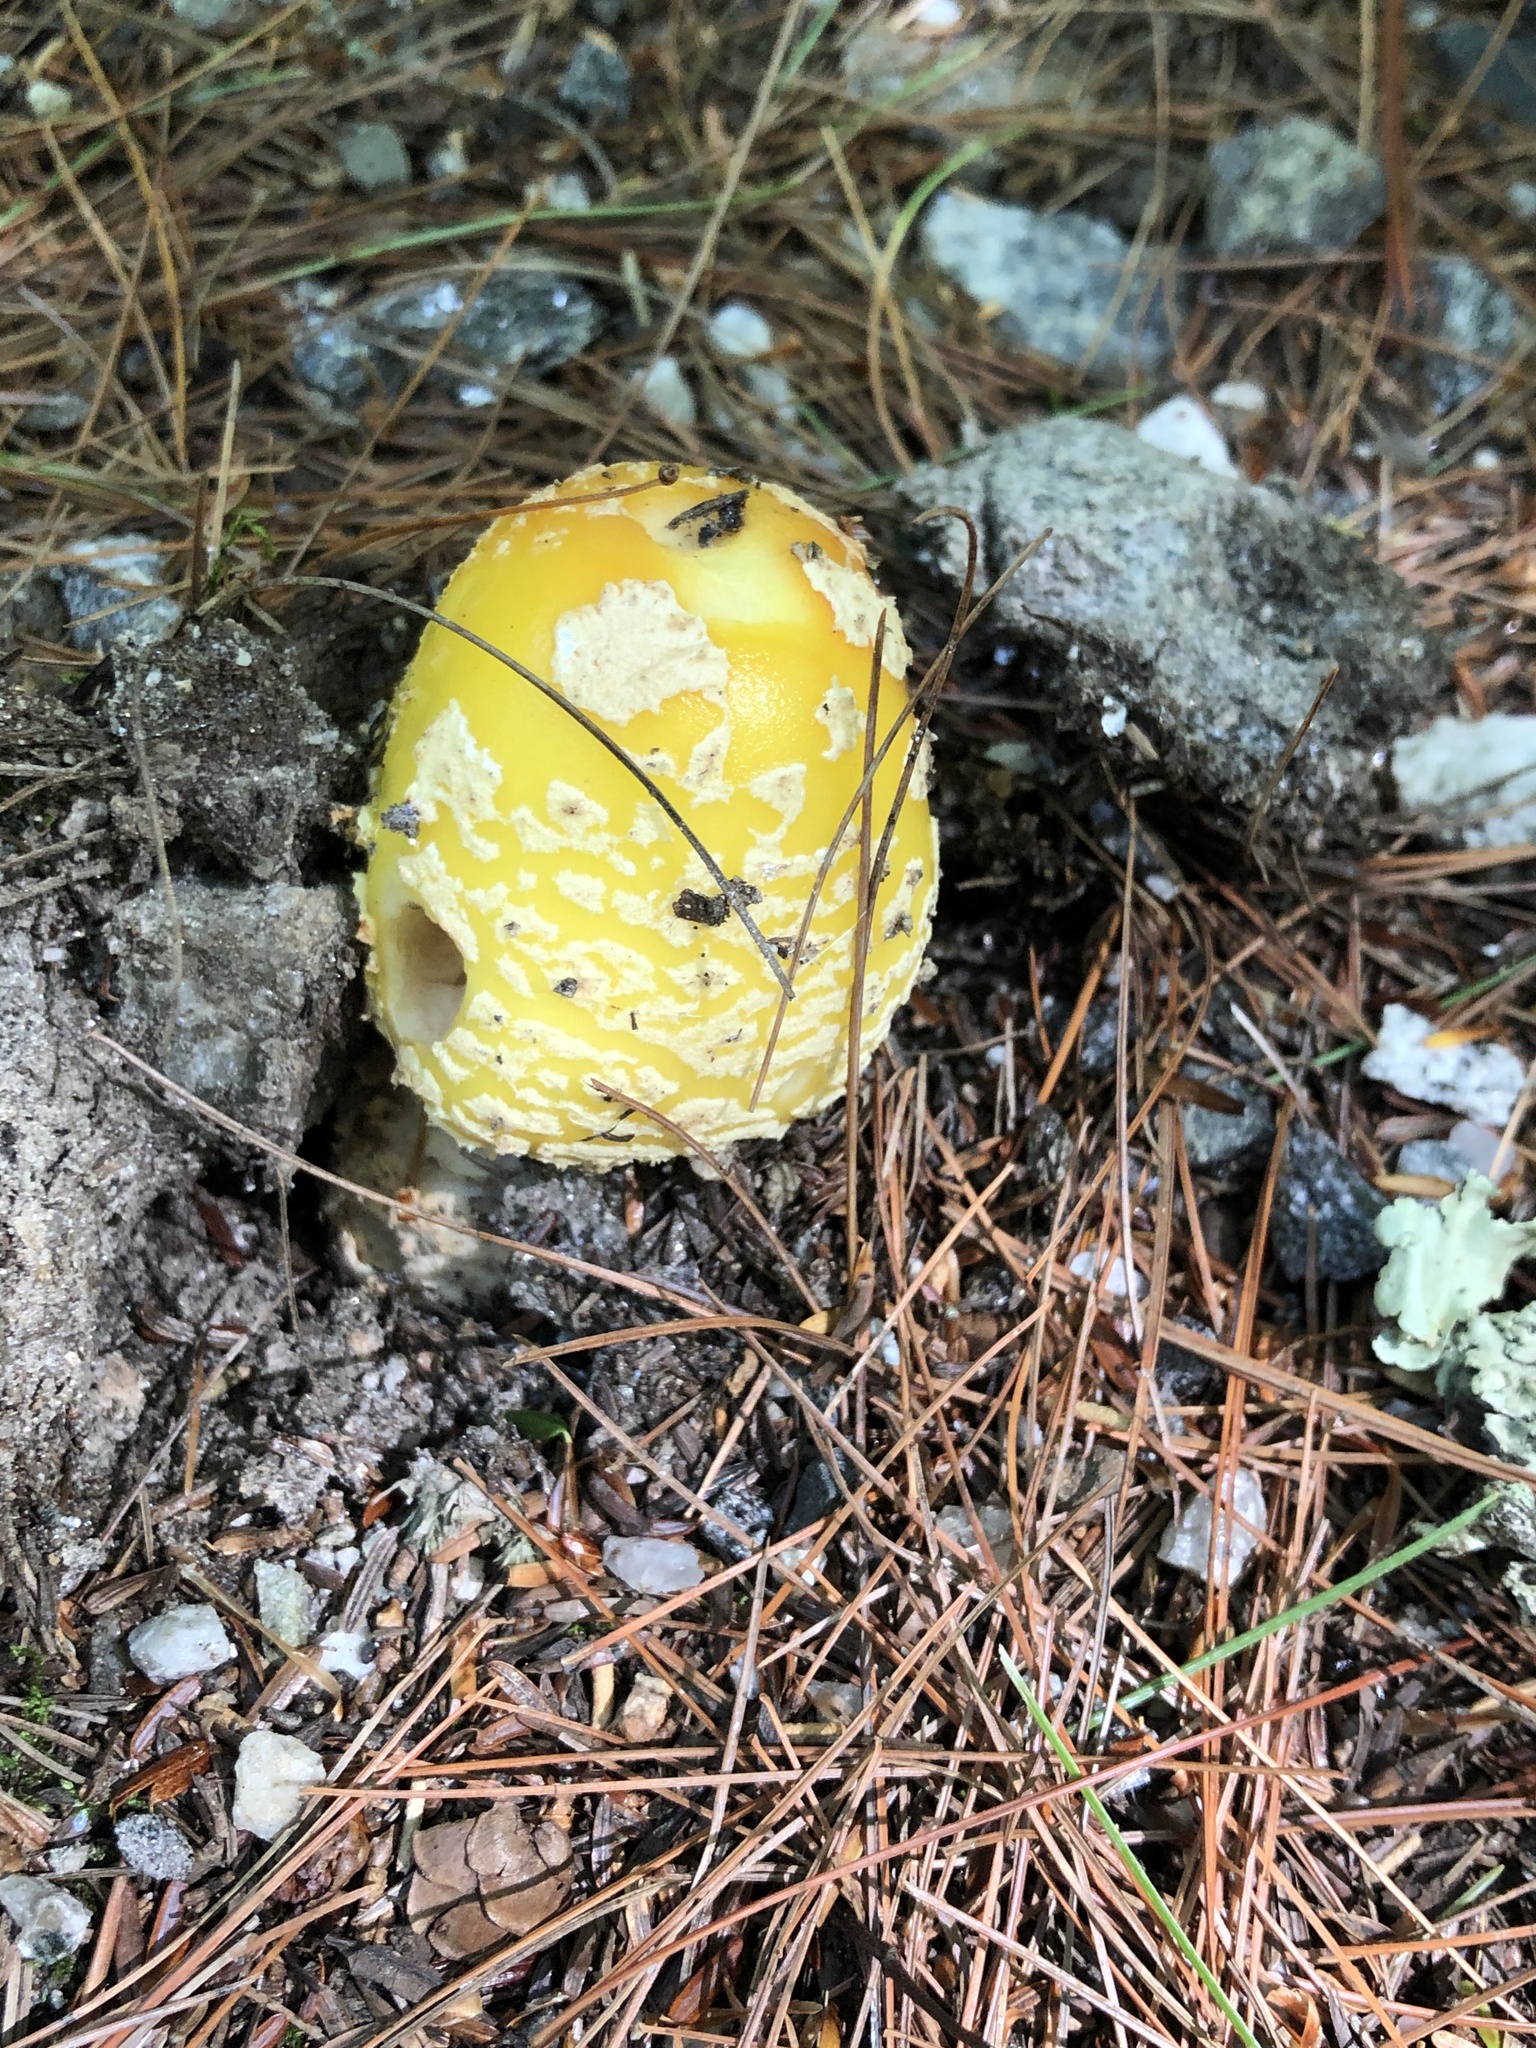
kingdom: Fungi
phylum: Basidiomycota
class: Agaricomycetes
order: Agaricales
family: Amanitaceae
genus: Amanita
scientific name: Amanita muscaria
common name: Fly agaric
